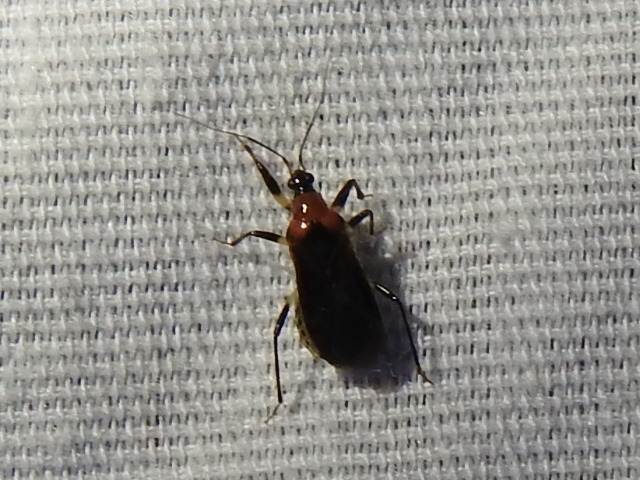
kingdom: Animalia
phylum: Arthropoda
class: Insecta
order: Hemiptera
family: Nabidae
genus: Alloeorhynchus
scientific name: Alloeorhynchus trimacula
